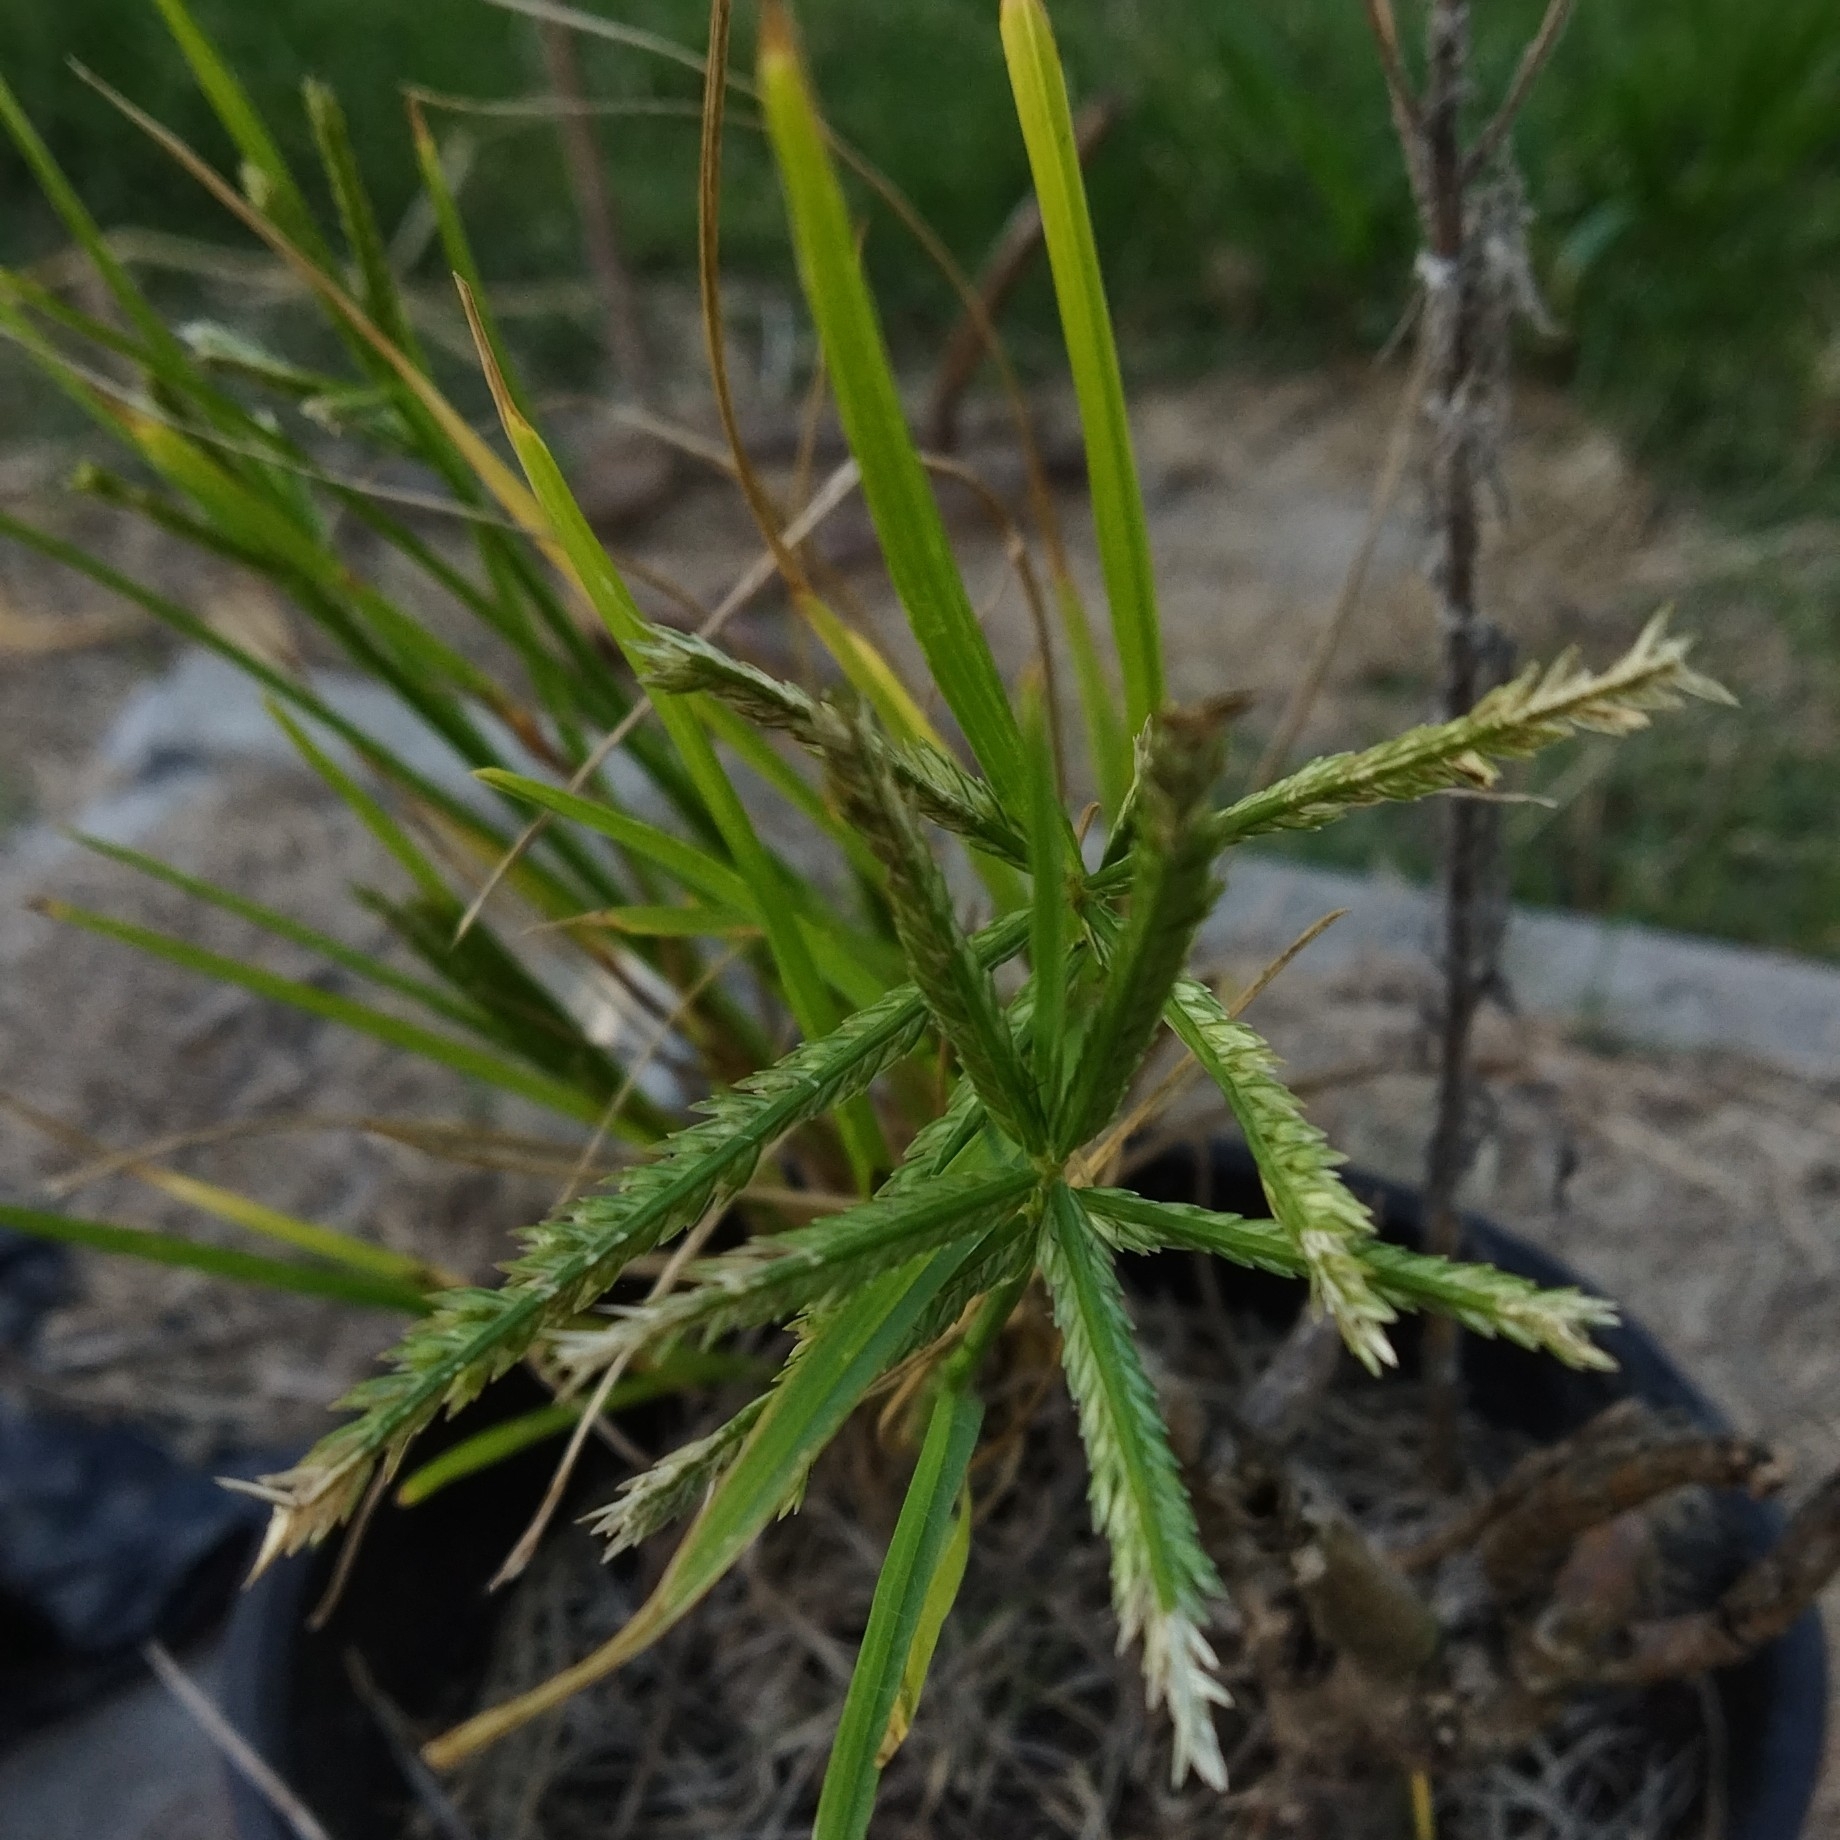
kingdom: Plantae
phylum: Tracheophyta
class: Liliopsida
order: Poales
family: Poaceae
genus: Eleusine
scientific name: Eleusine indica
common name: Yard-grass
